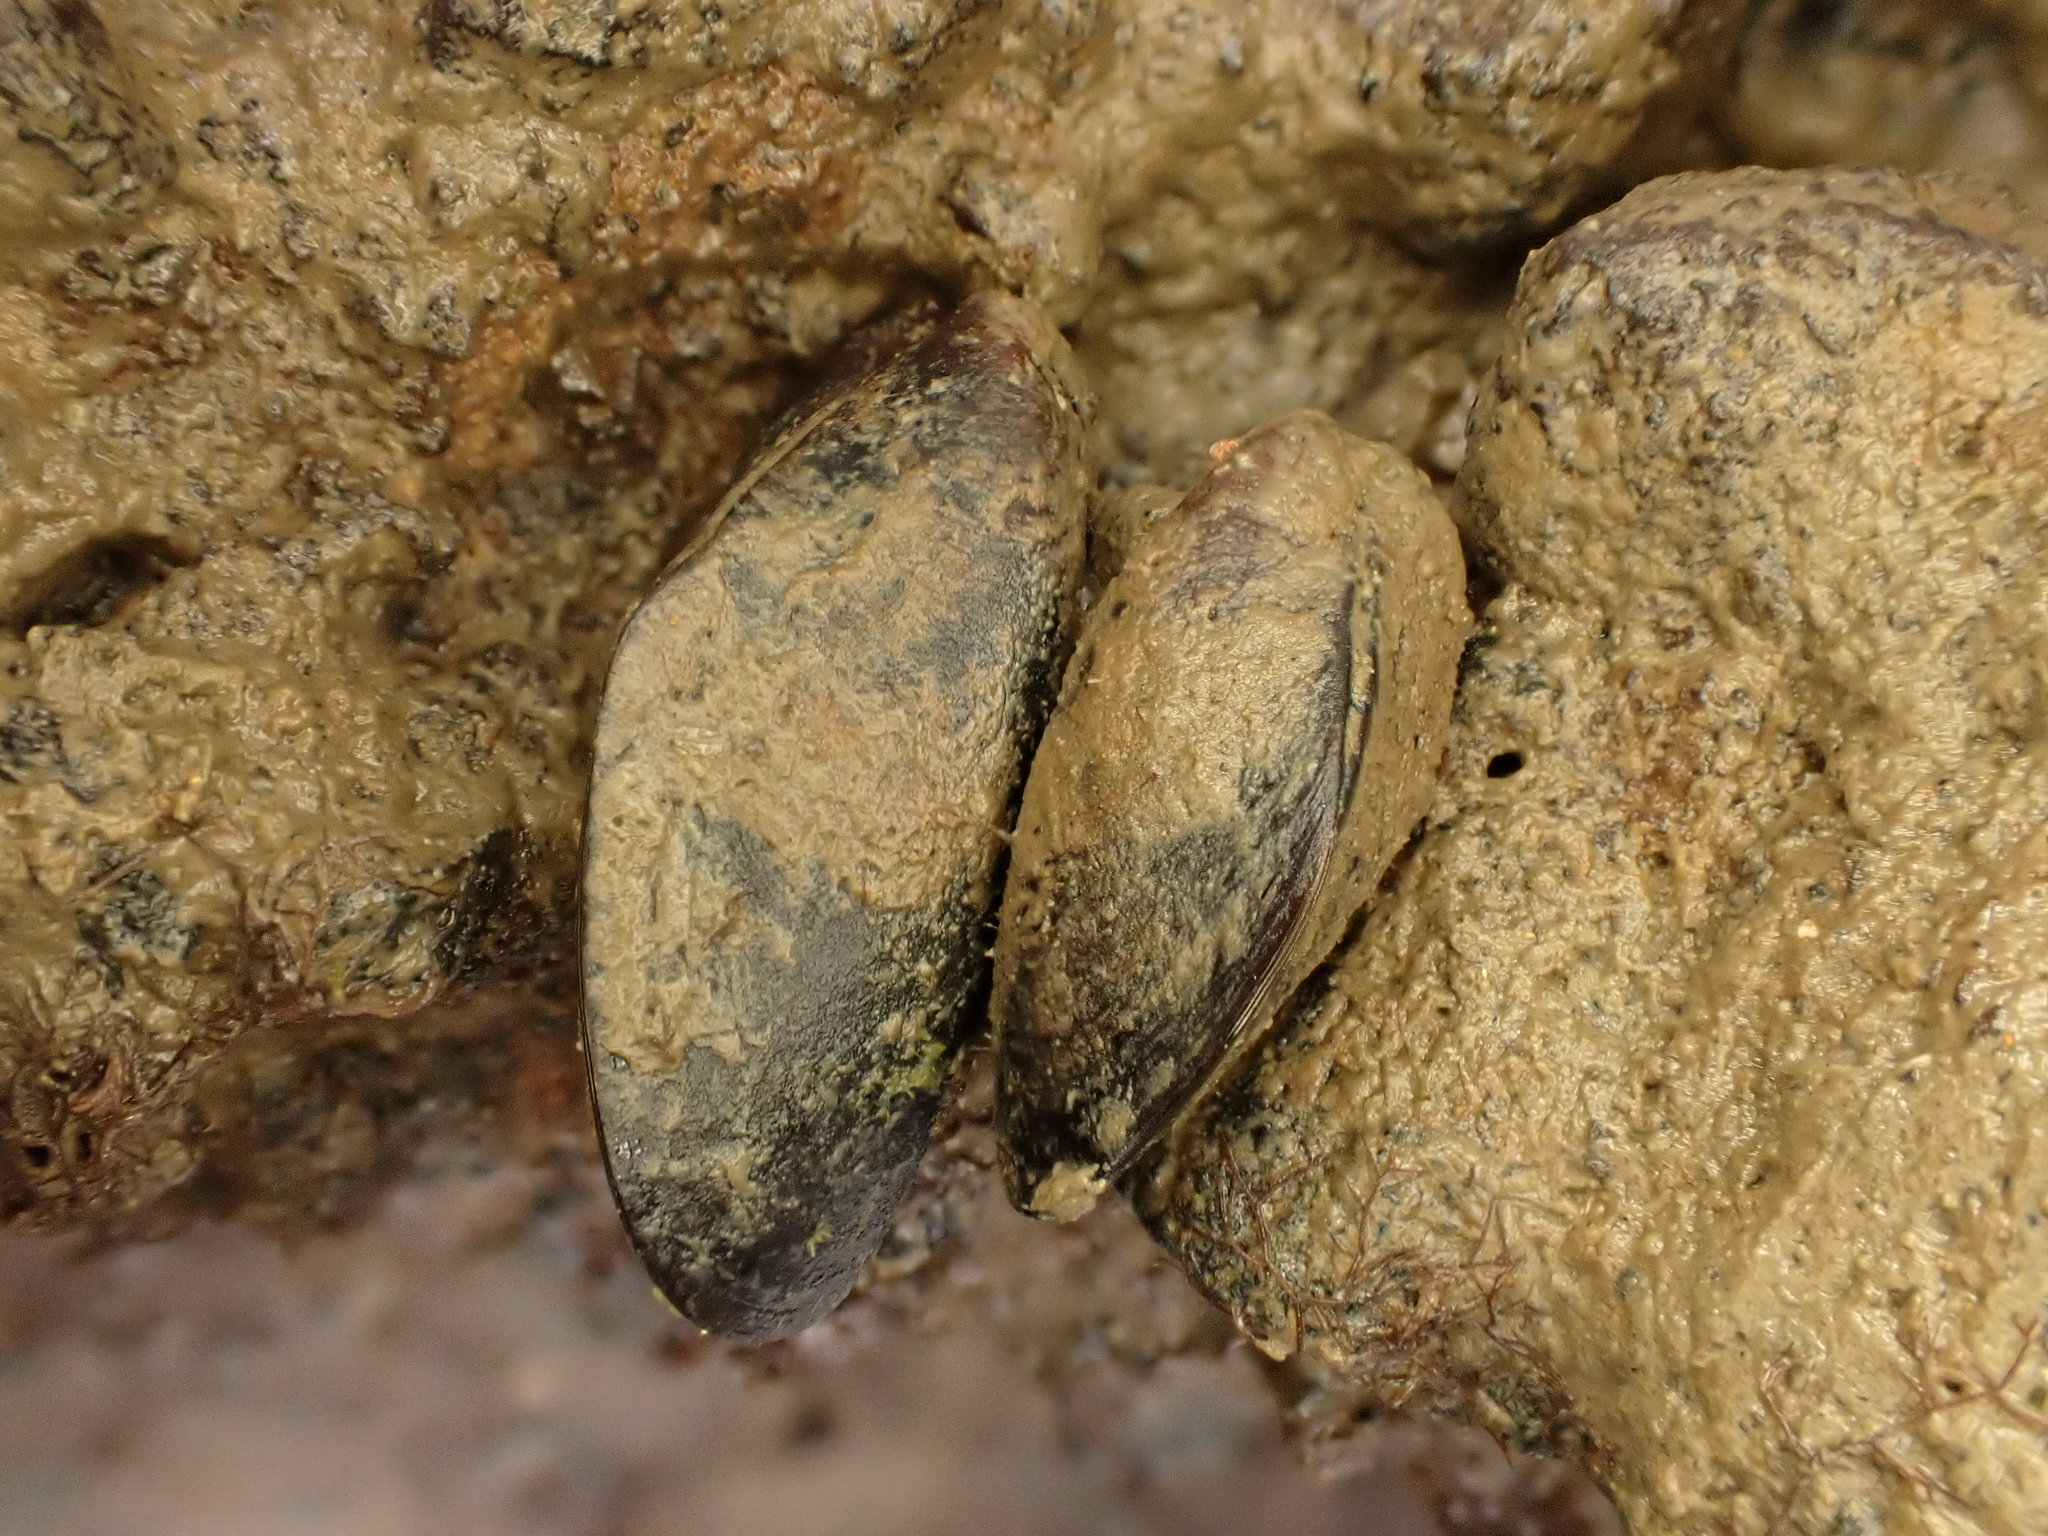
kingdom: Animalia
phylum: Mollusca
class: Bivalvia
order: Mytilida
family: Mytilidae
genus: Xenostrobus
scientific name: Xenostrobus securis
